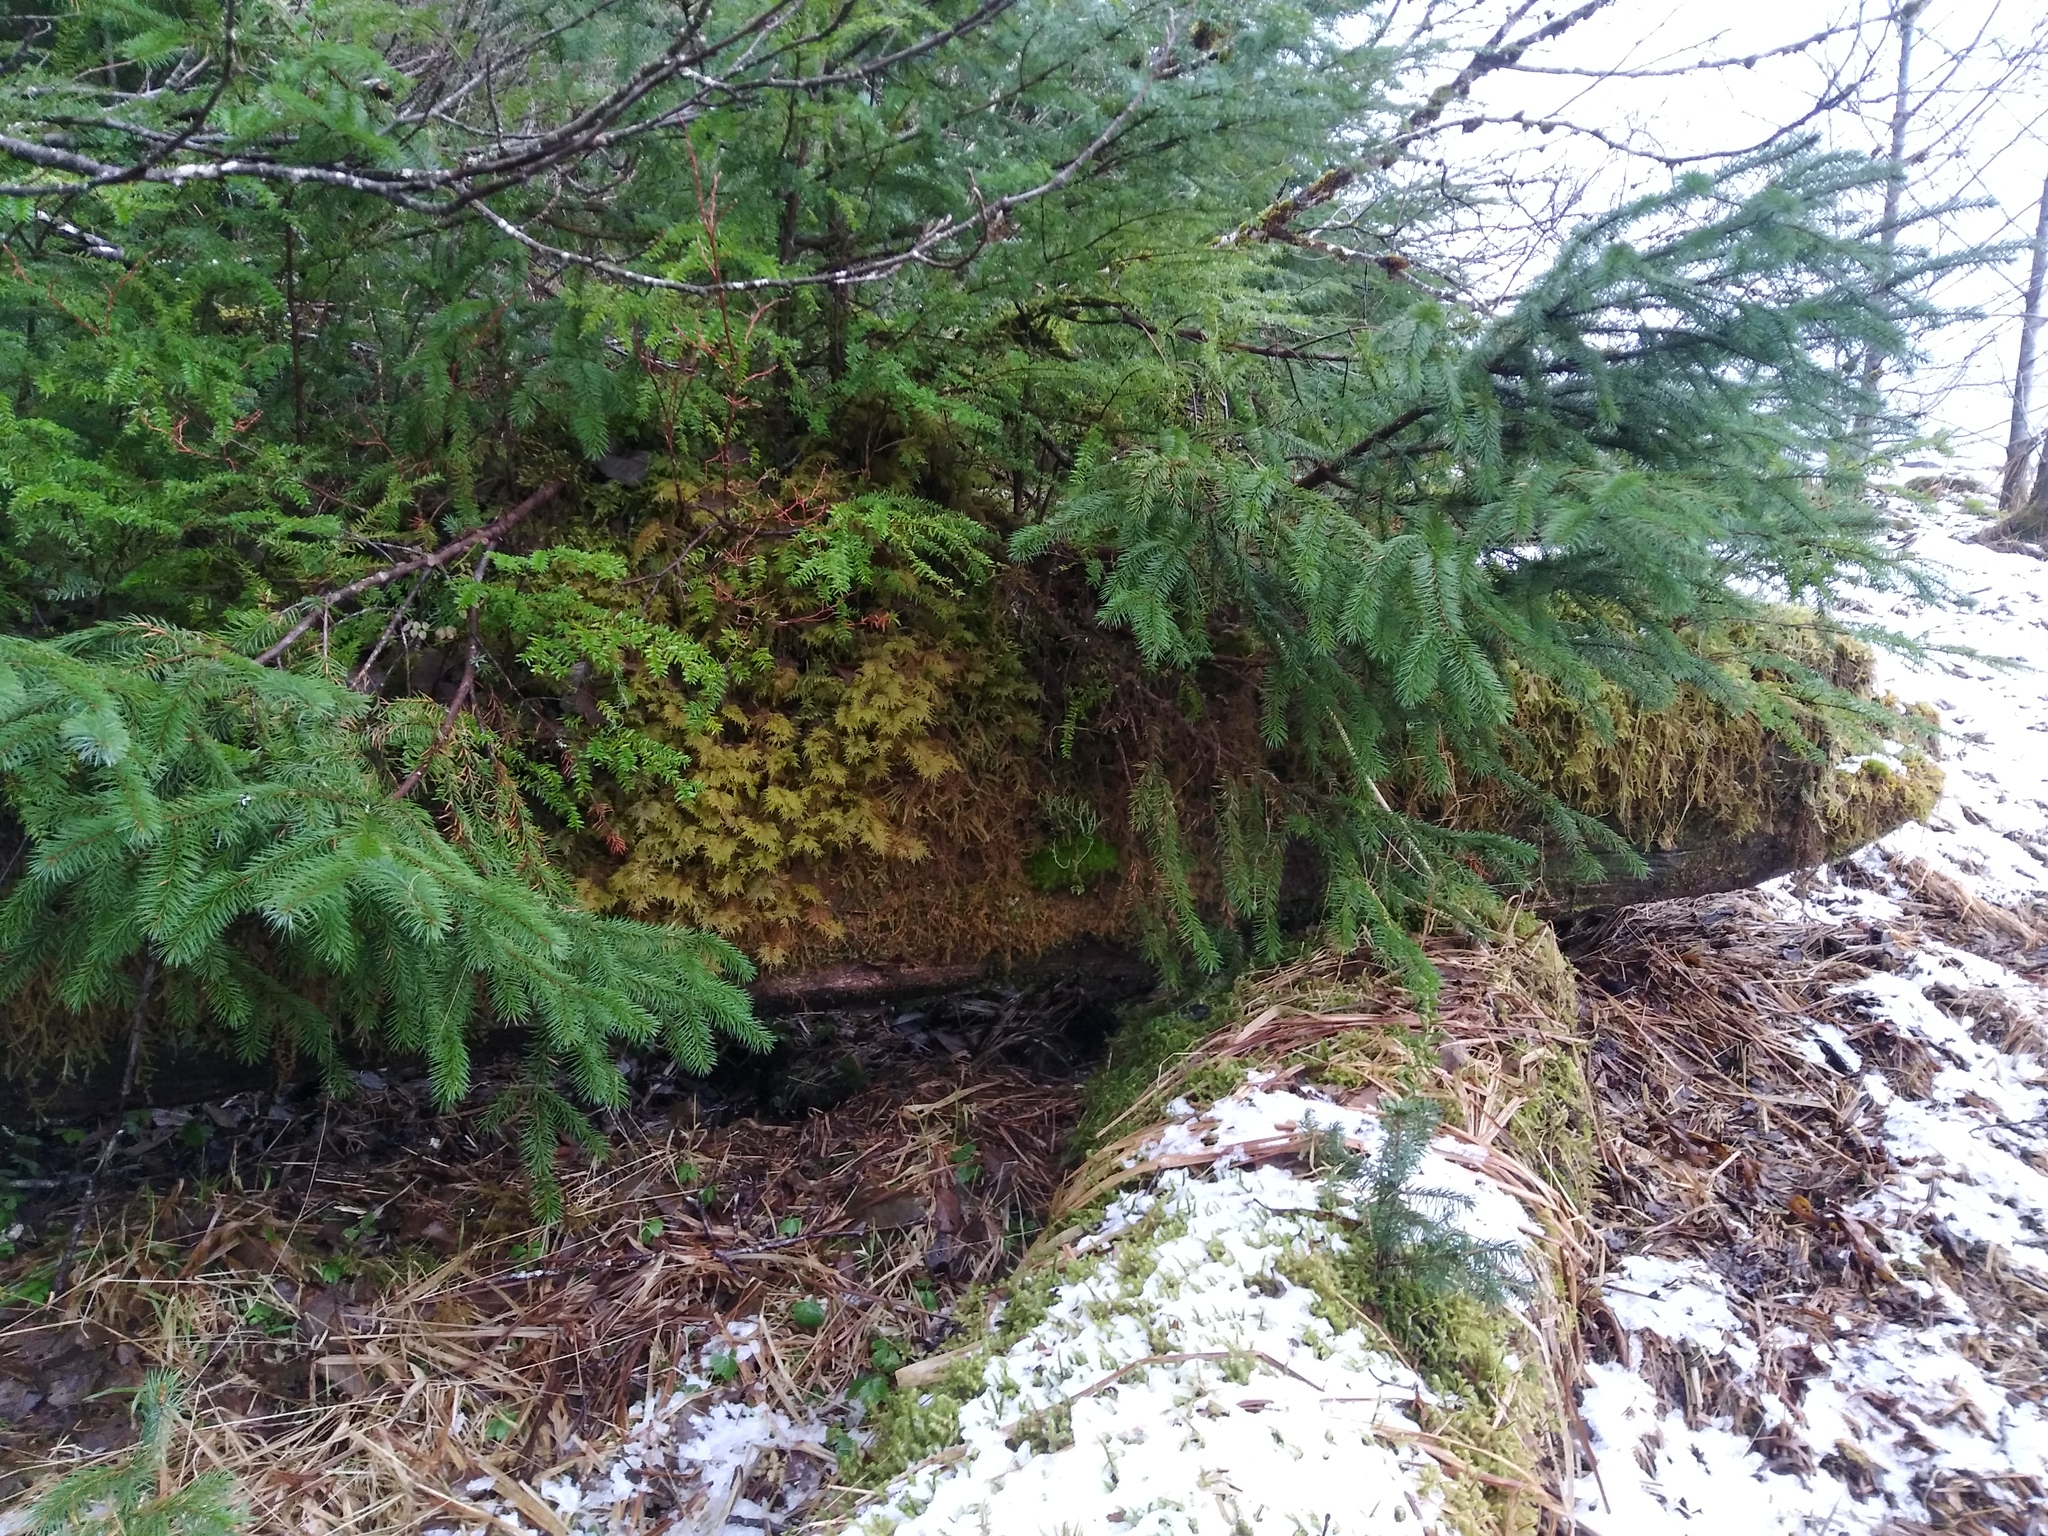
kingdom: Plantae
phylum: Bryophyta
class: Bryopsida
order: Hypnales
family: Hylocomiaceae
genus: Hylocomium
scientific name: Hylocomium splendens
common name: Stairstep moss
